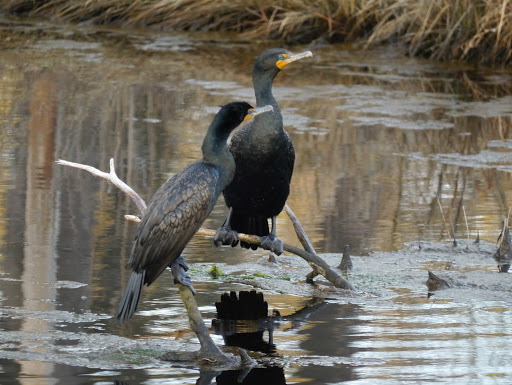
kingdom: Animalia
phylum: Chordata
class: Aves
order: Suliformes
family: Phalacrocoracidae
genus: Phalacrocorax
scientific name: Phalacrocorax auritus
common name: Double-crested cormorant
